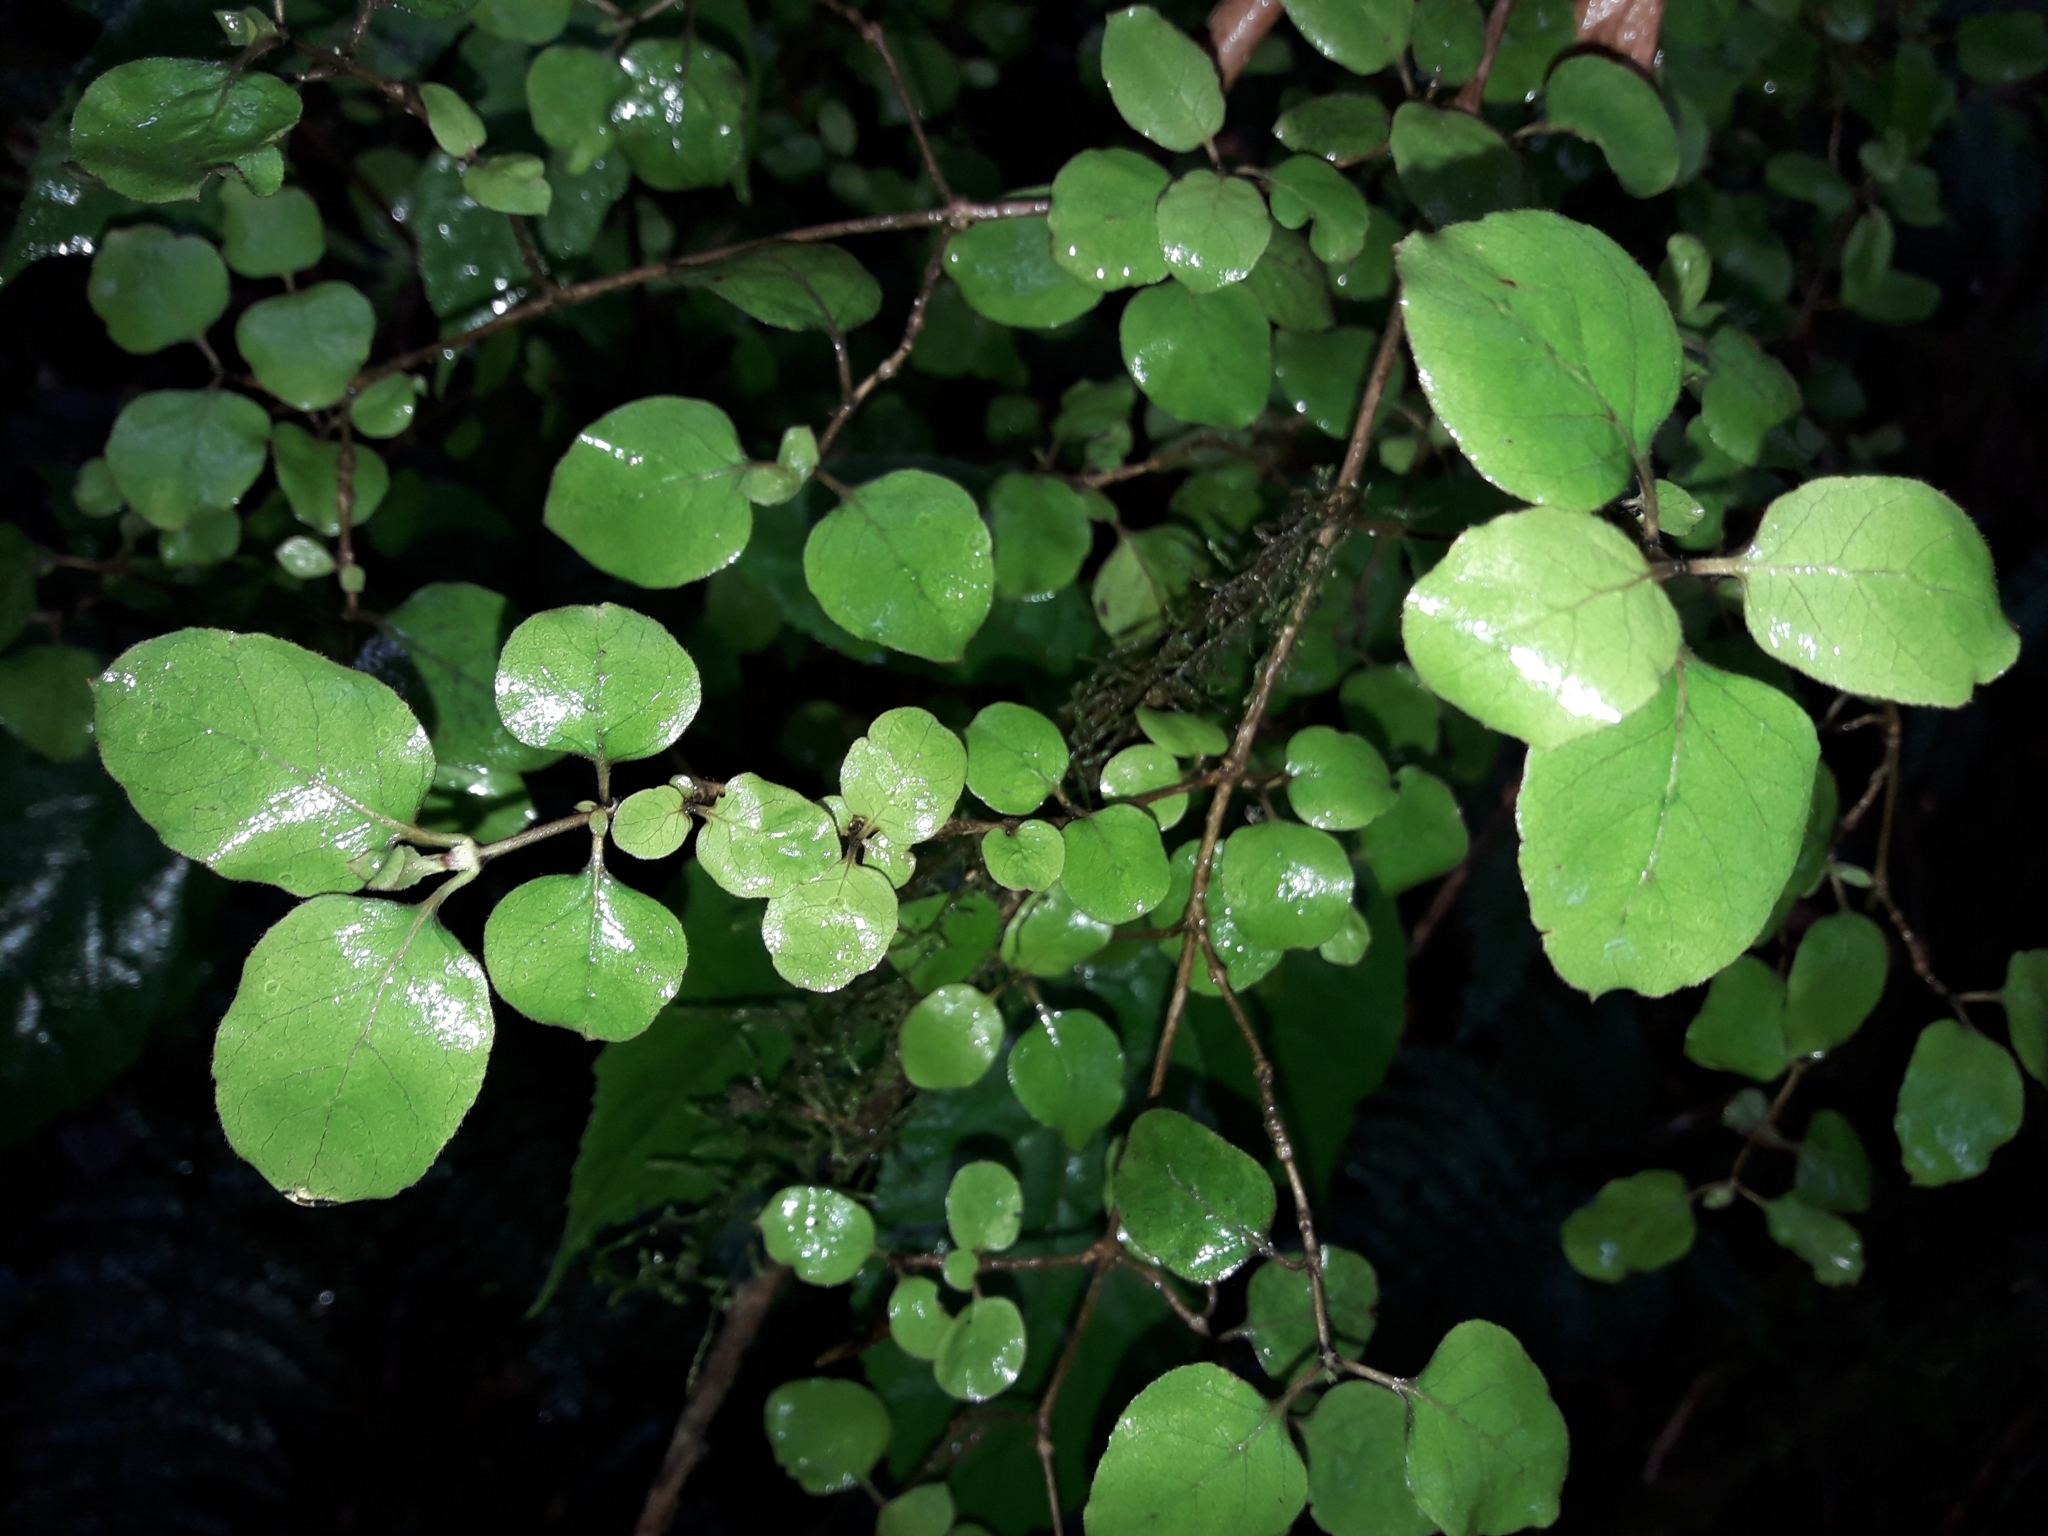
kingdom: Plantae
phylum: Tracheophyta
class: Magnoliopsida
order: Gentianales
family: Rubiaceae
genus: Coprosma
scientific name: Coprosma rotundifolia
